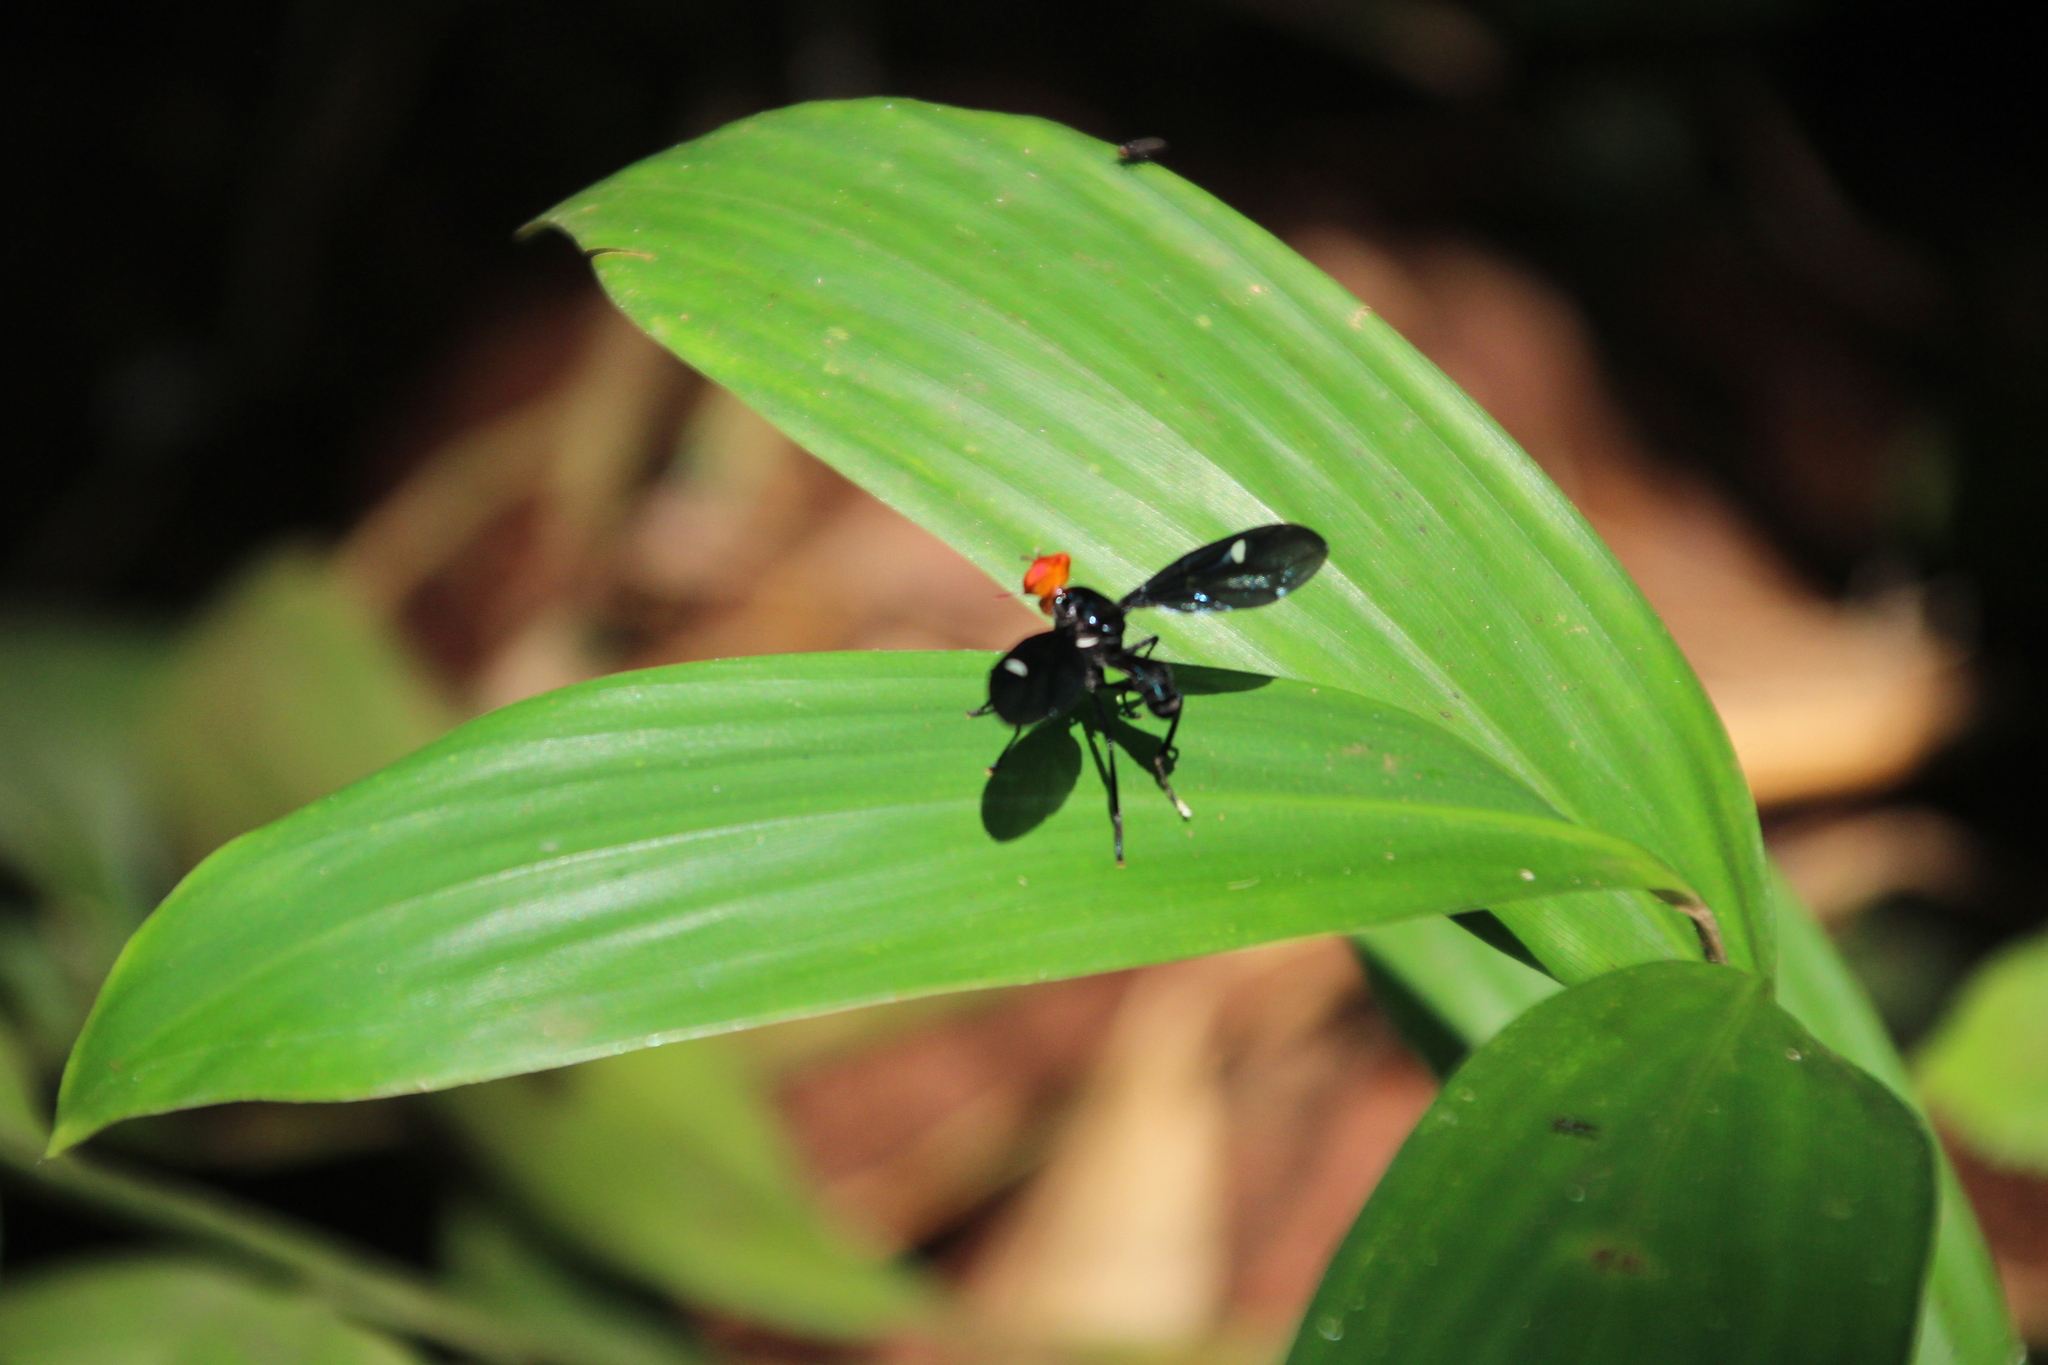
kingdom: Animalia
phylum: Arthropoda
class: Insecta
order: Diptera
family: Platystomatidae
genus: Clitodoca
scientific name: Clitodoca fenestralis
